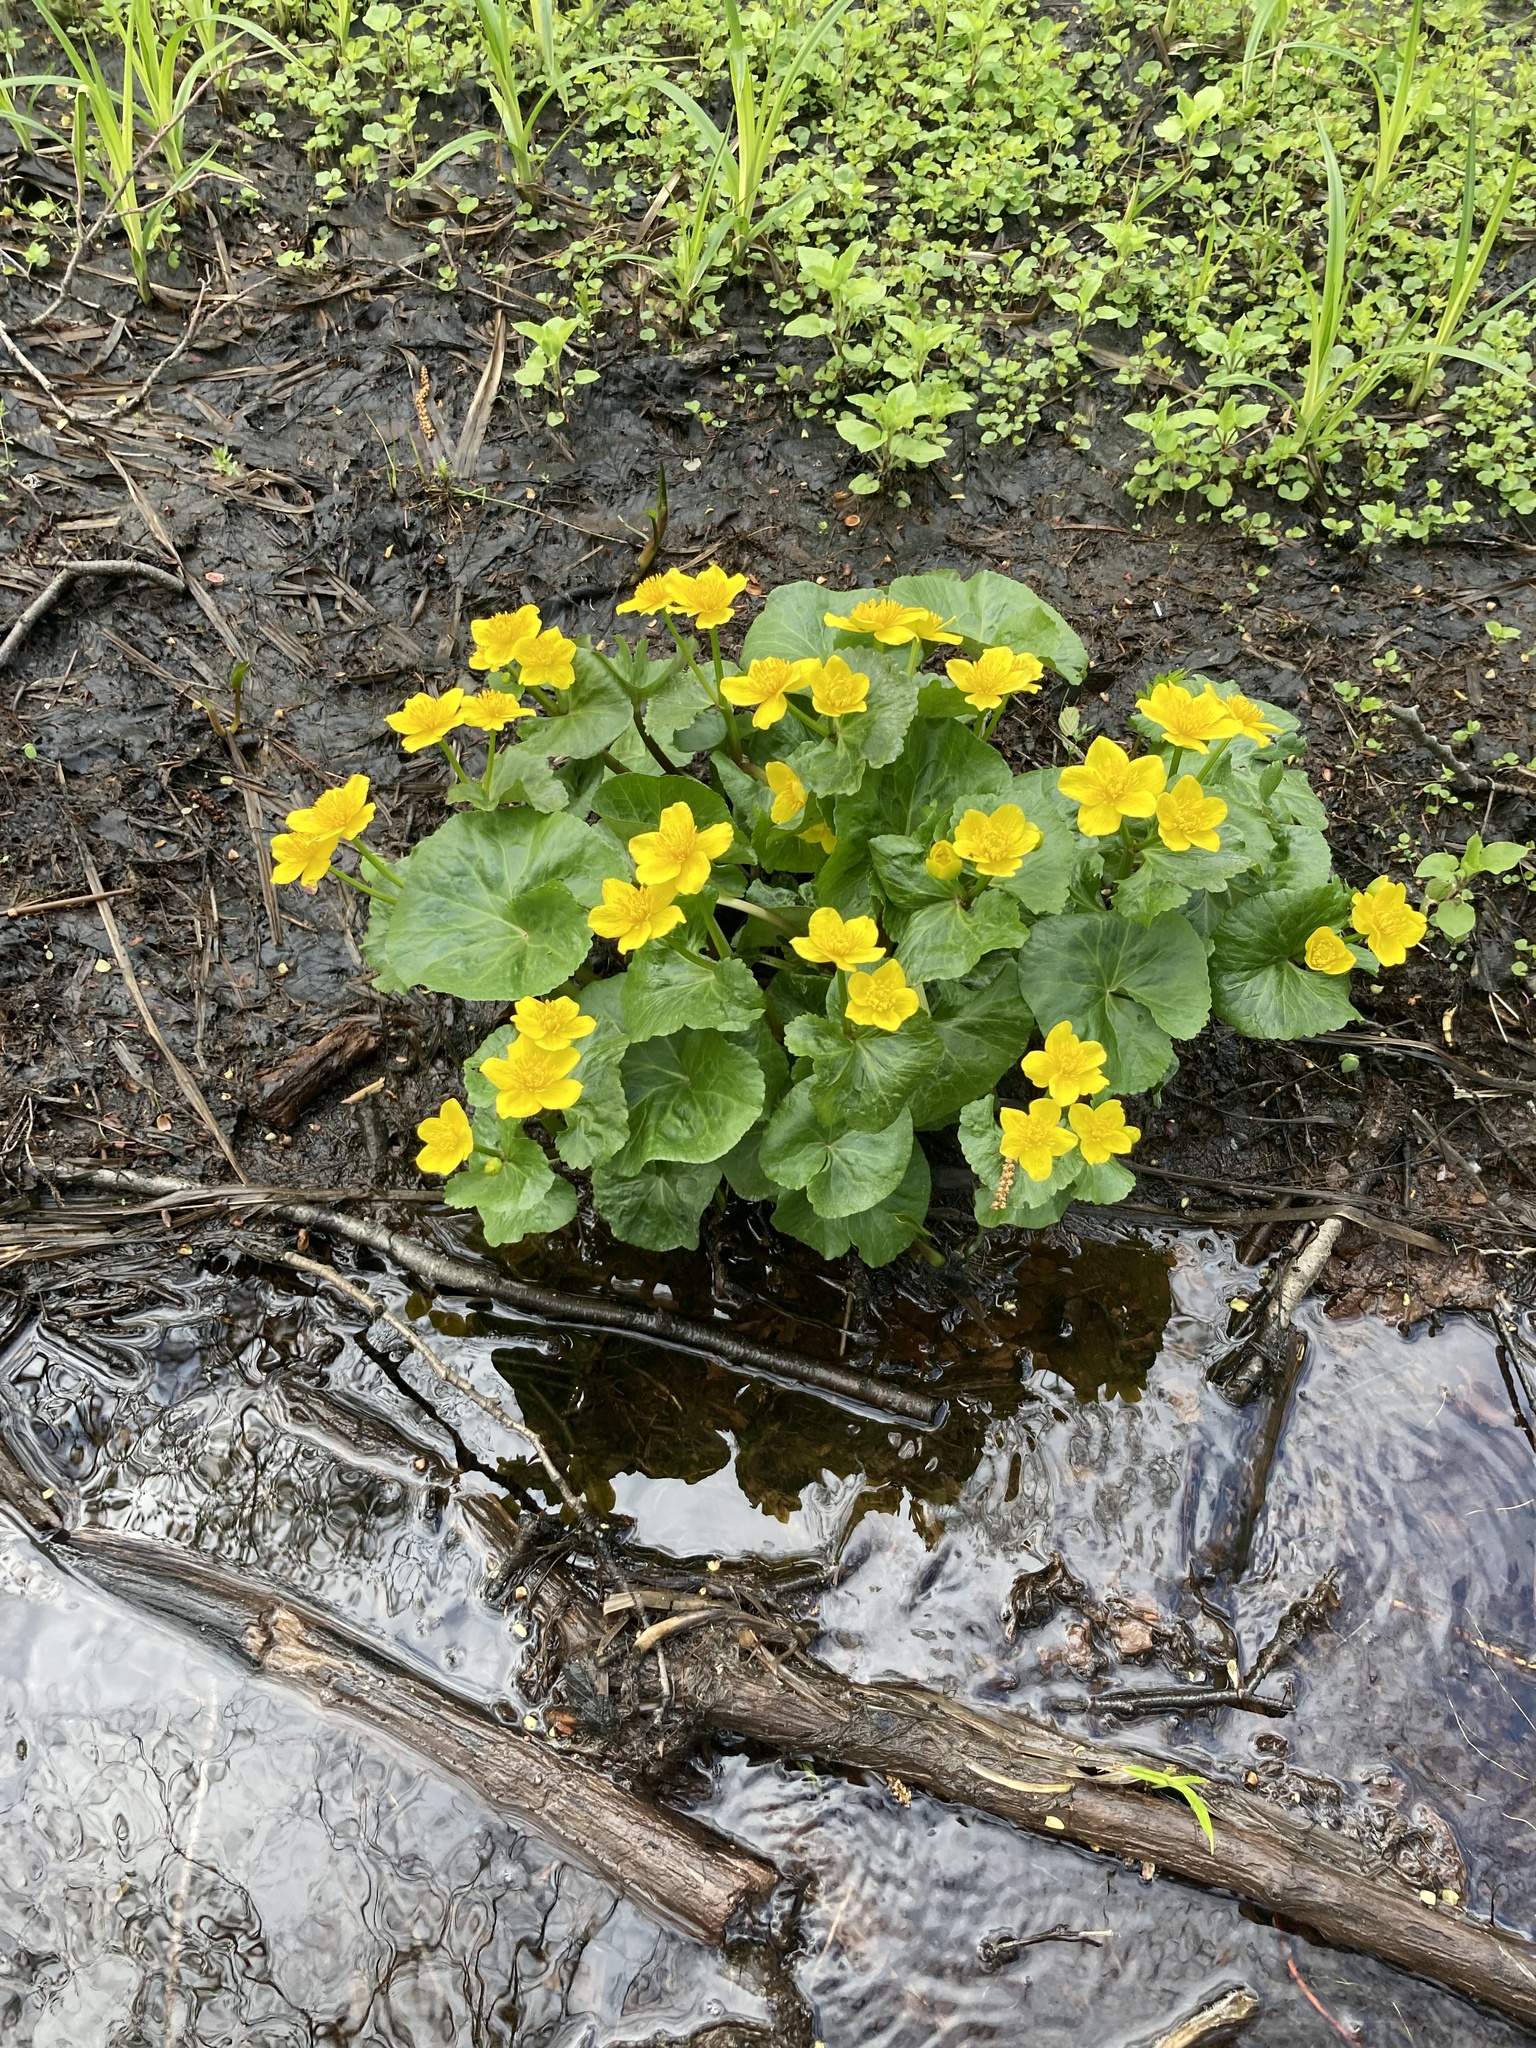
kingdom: Plantae
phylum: Tracheophyta
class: Magnoliopsida
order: Ranunculales
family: Ranunculaceae
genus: Caltha
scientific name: Caltha palustris
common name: Marsh marigold
